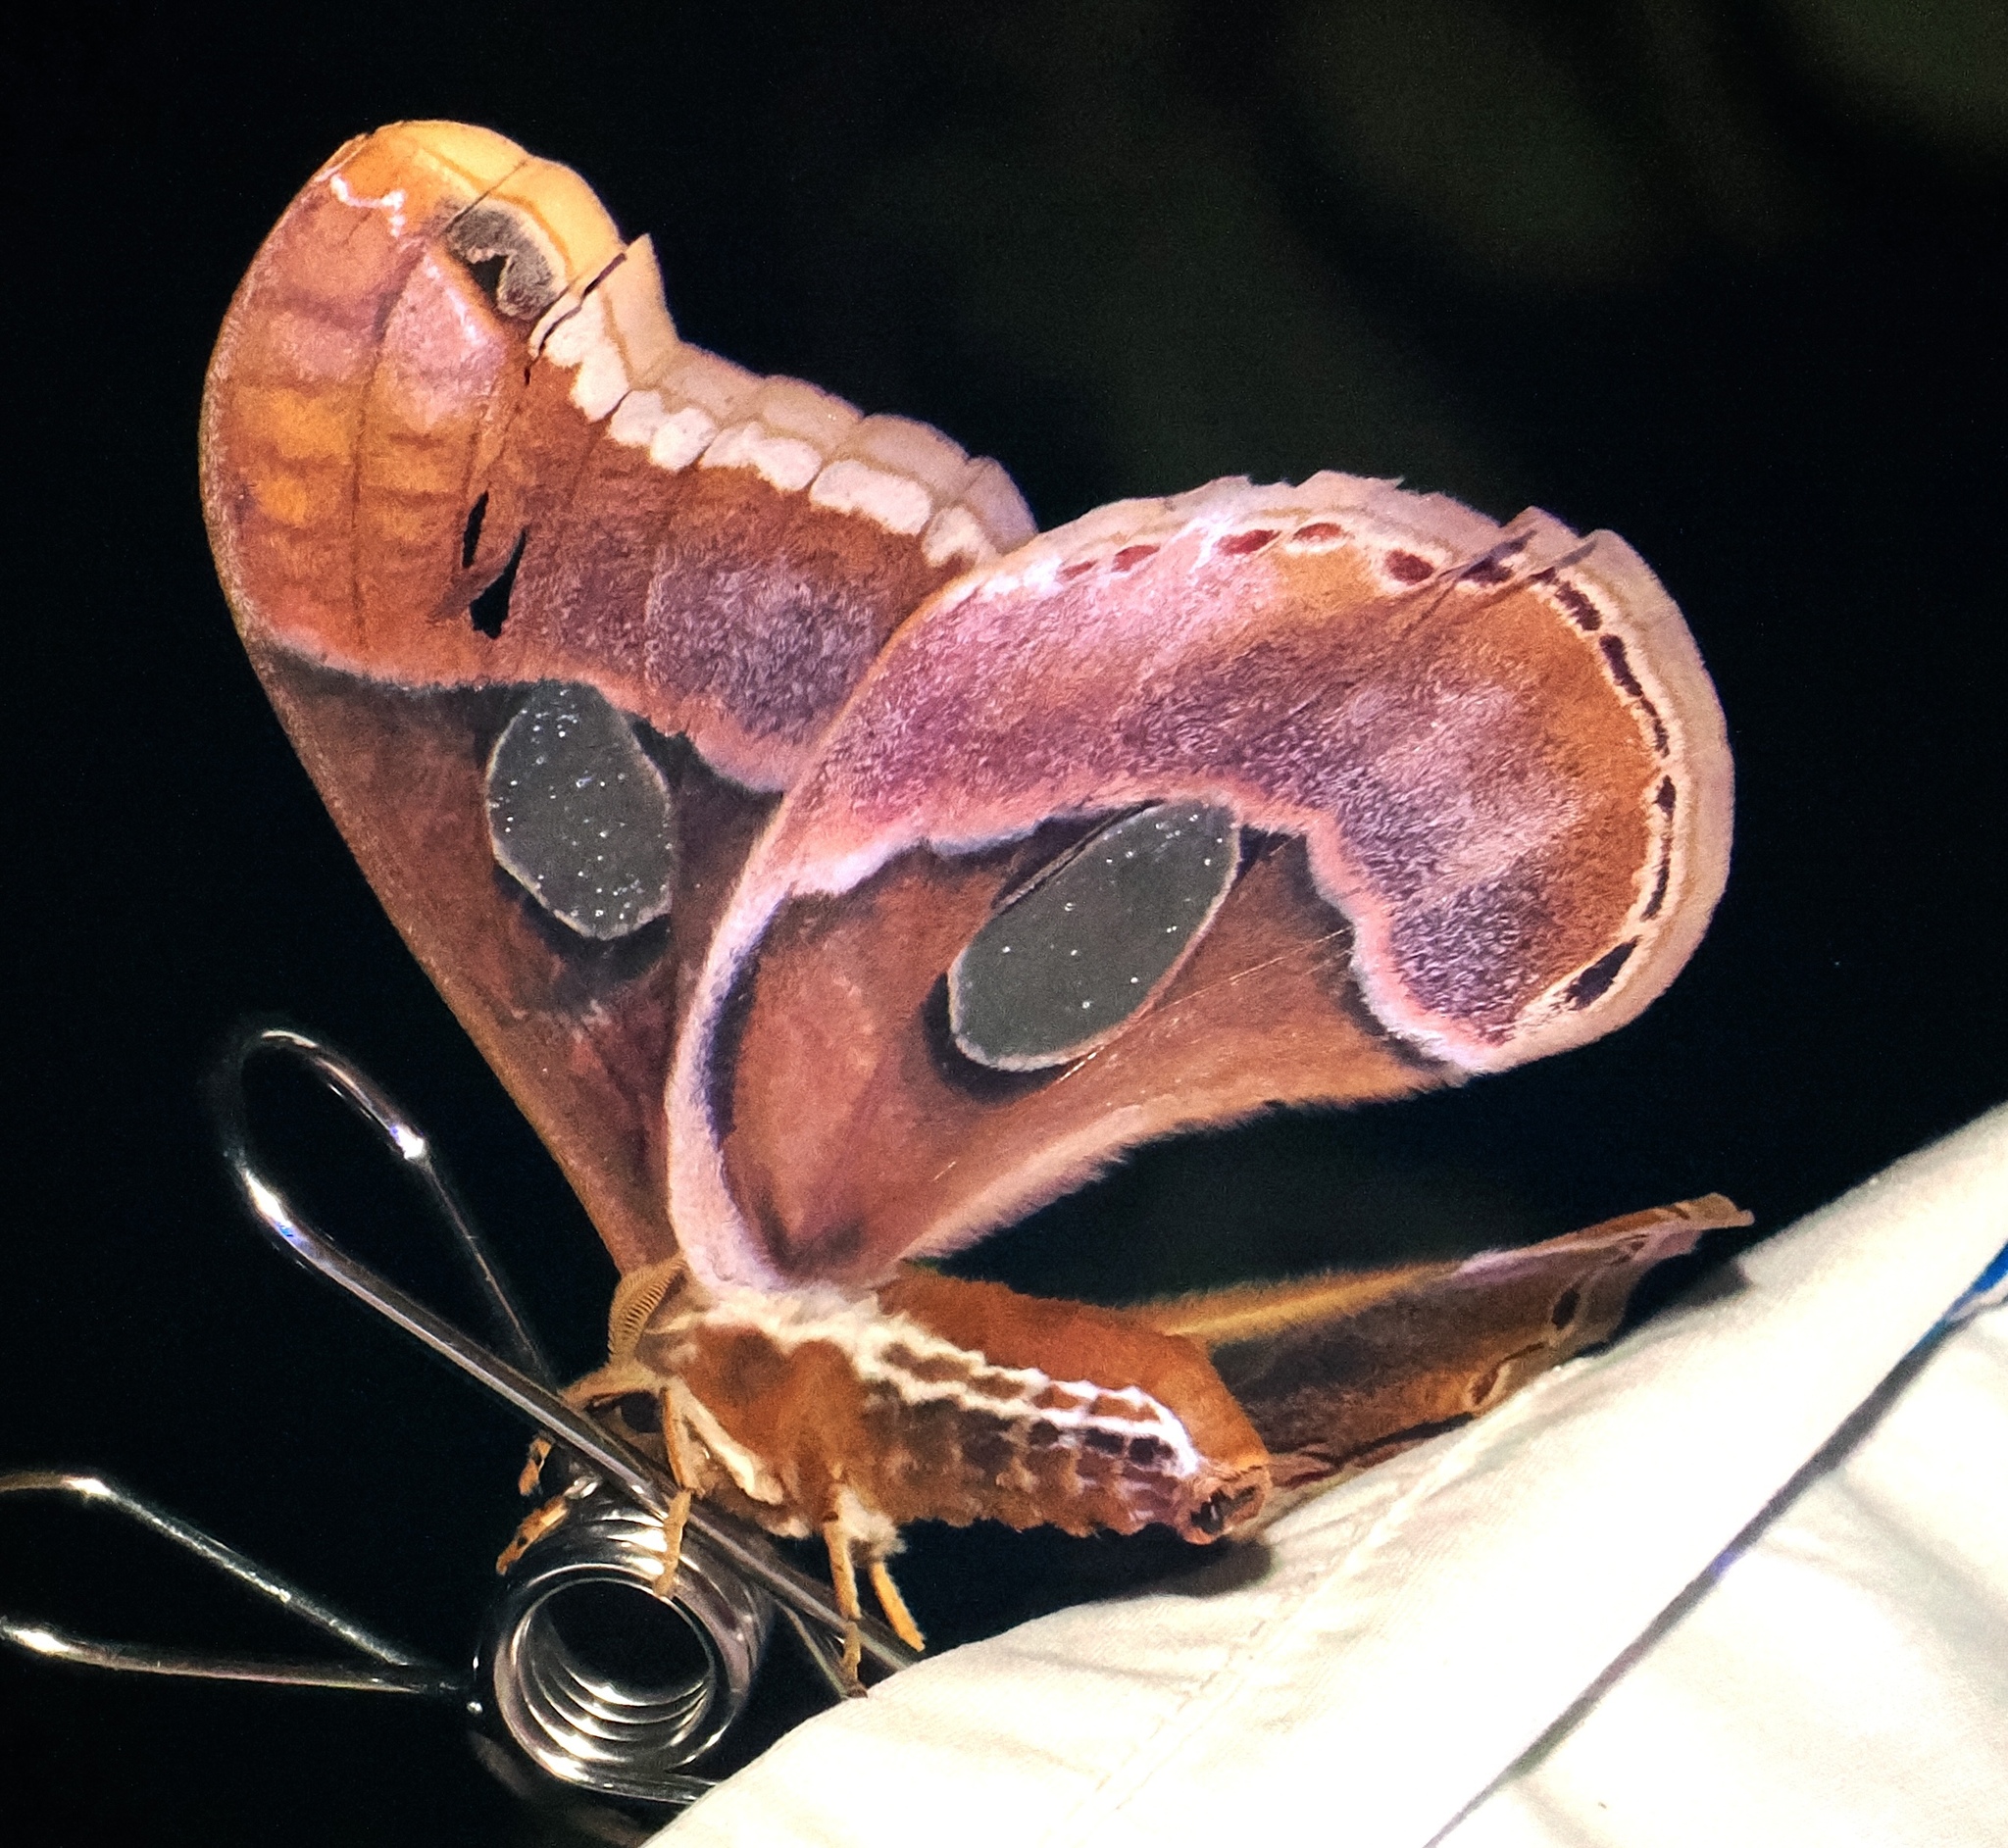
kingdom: Animalia
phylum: Arthropoda
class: Insecta
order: Lepidoptera
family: Saturniidae
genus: Rothschildia
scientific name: Rothschildia arethusa
